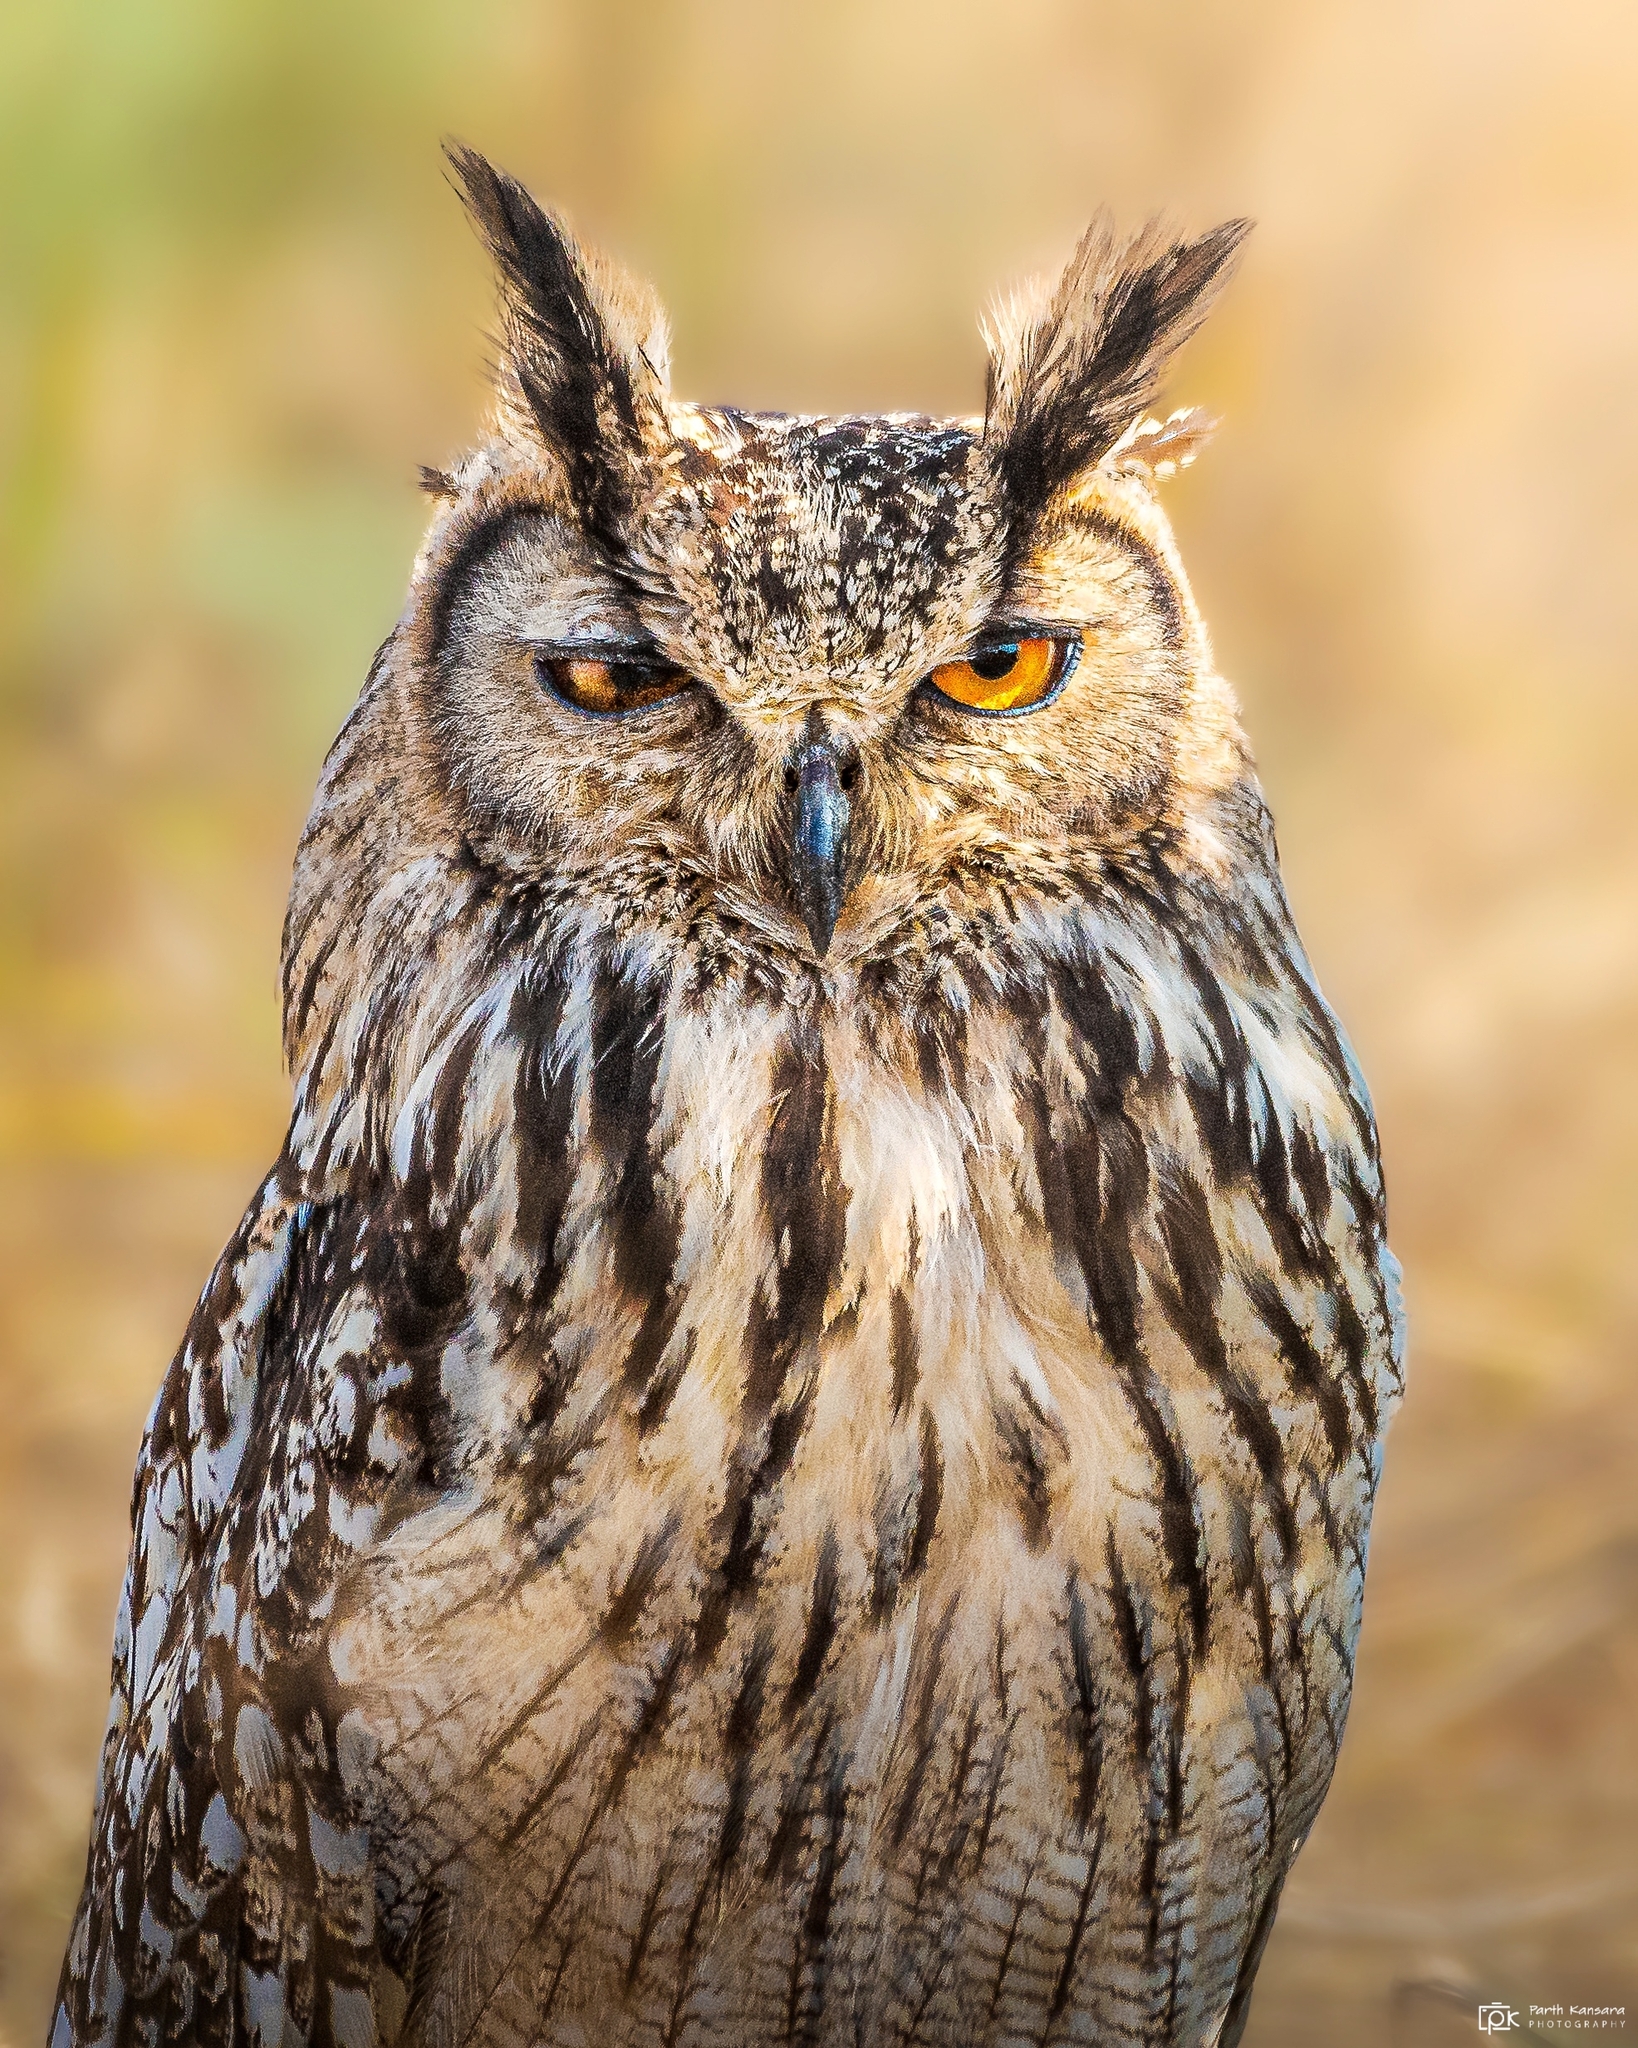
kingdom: Animalia
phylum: Chordata
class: Aves
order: Strigiformes
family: Strigidae
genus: Bubo
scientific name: Bubo bengalensis
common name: Indian eagle-owl
